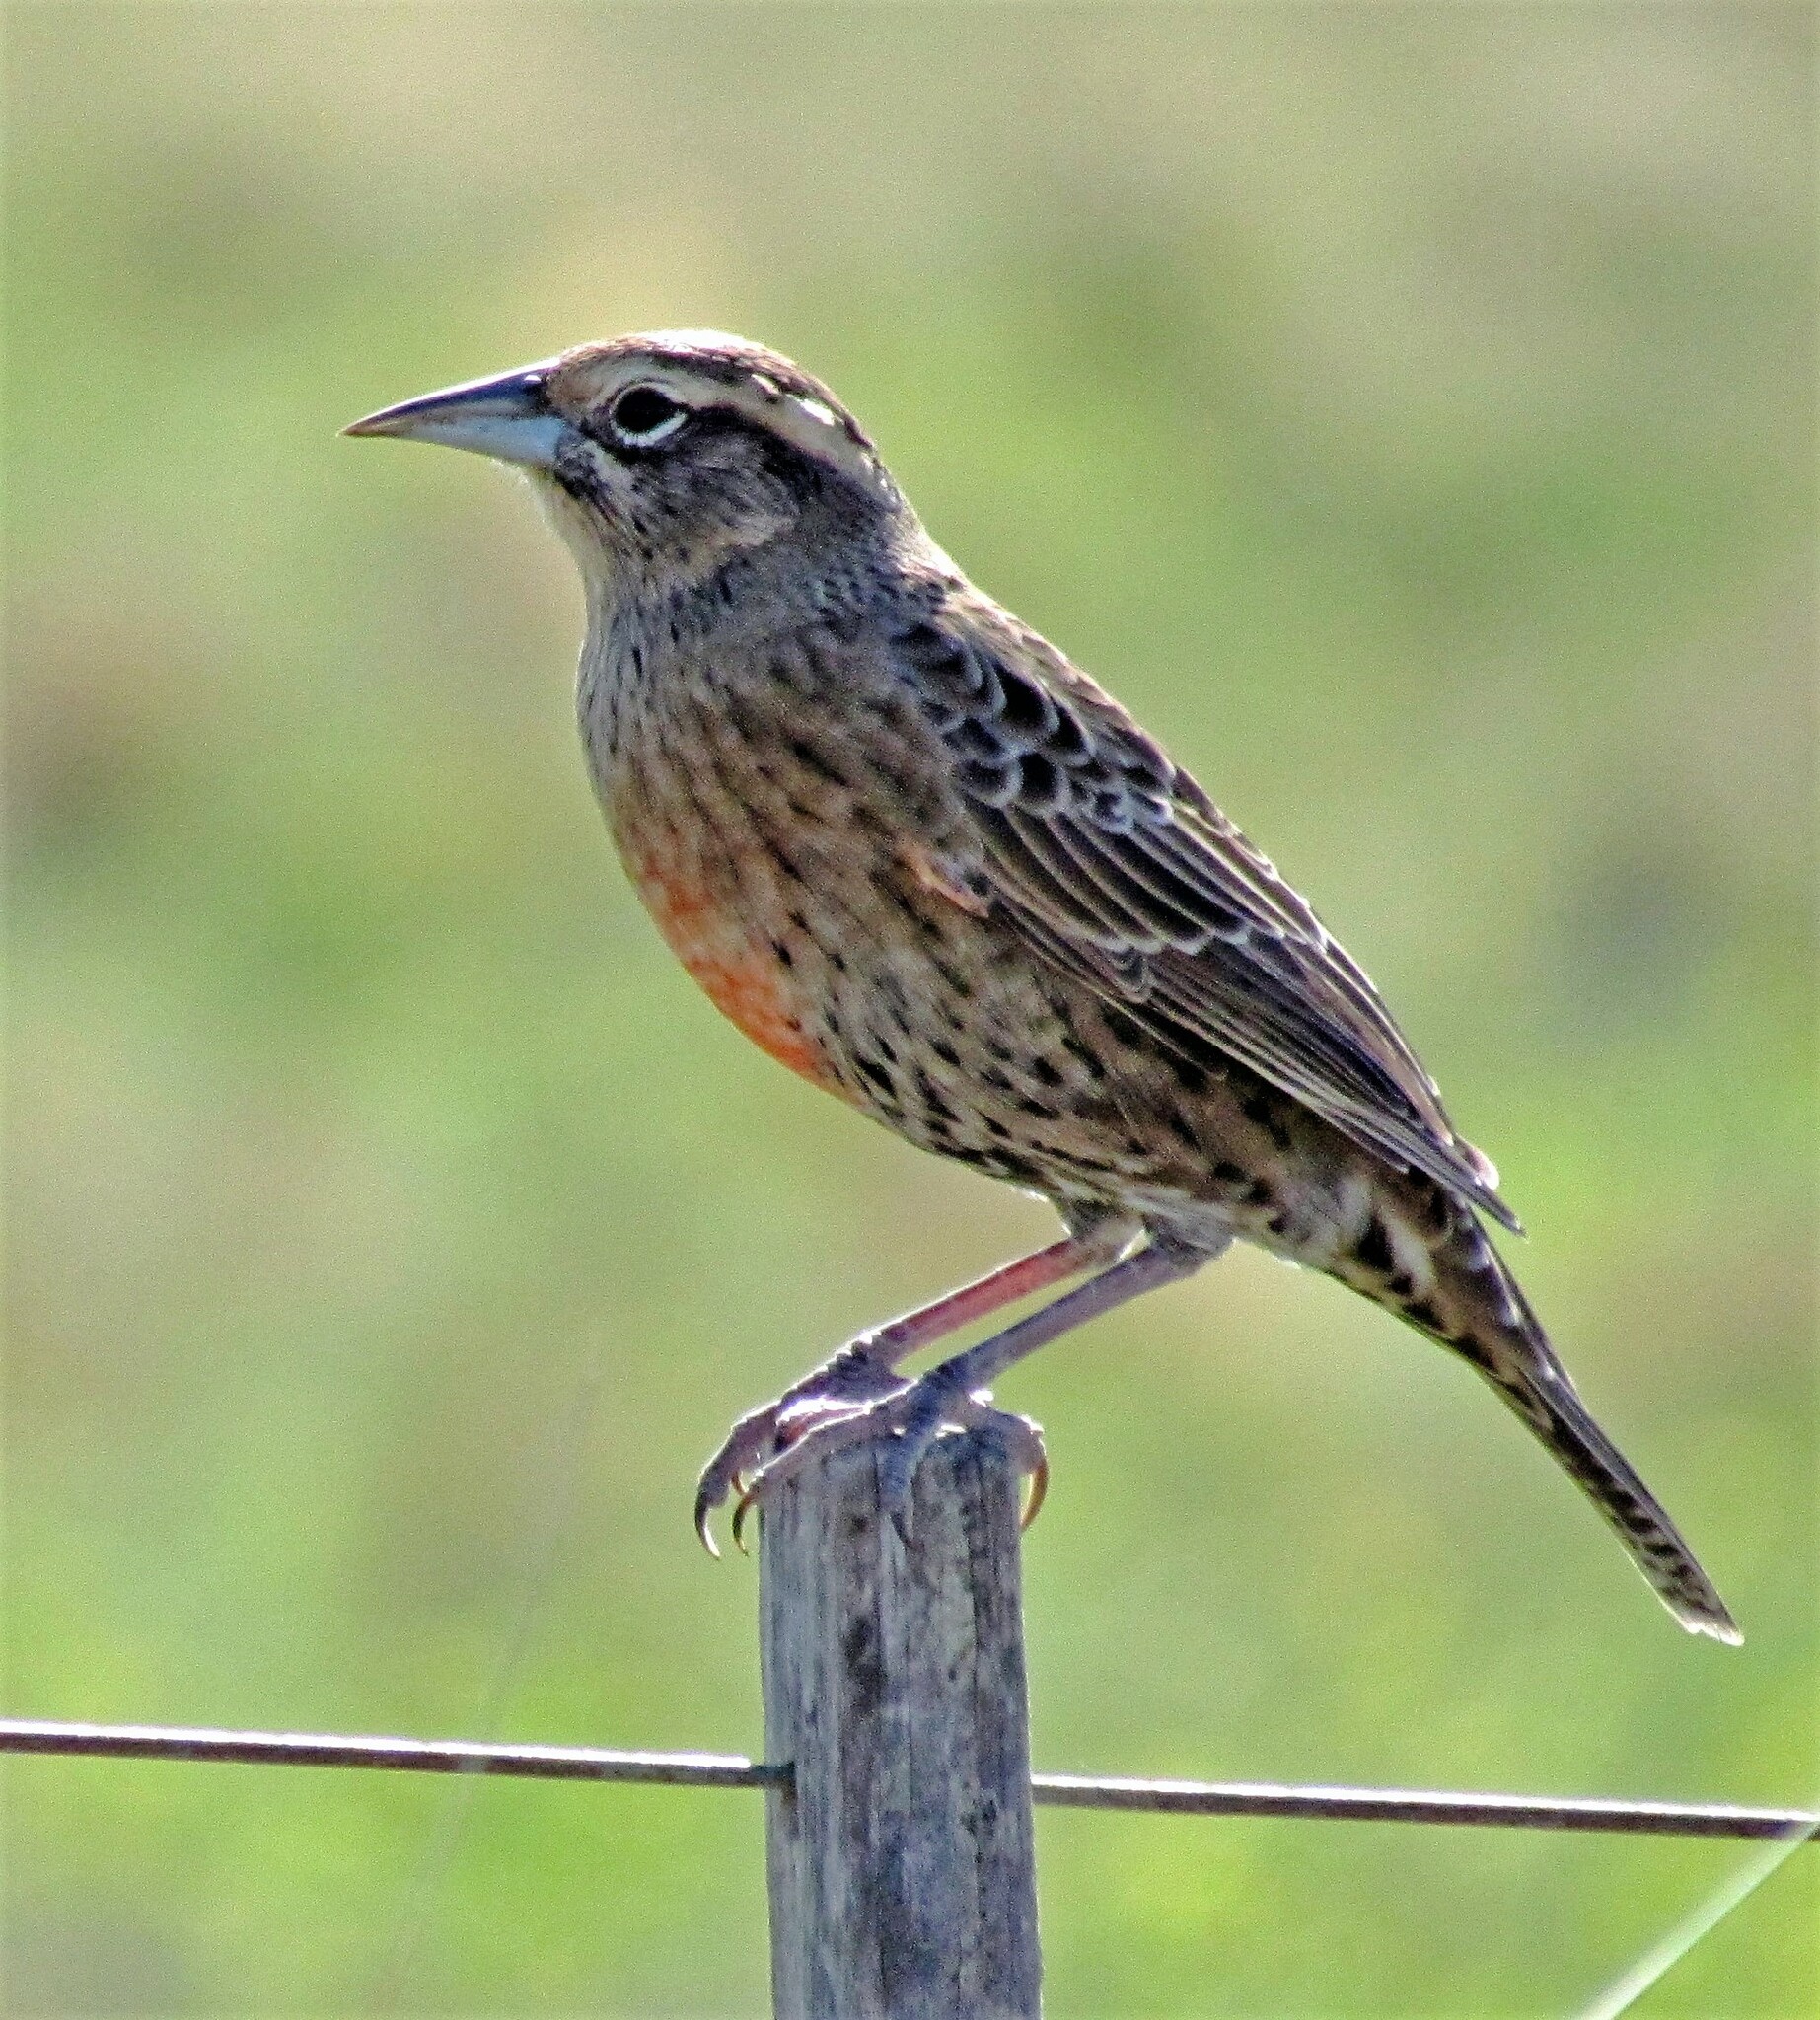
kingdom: Animalia
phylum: Chordata
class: Aves
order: Passeriformes
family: Icteridae
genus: Sturnella
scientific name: Sturnella loyca
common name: Long-tailed meadowlark
